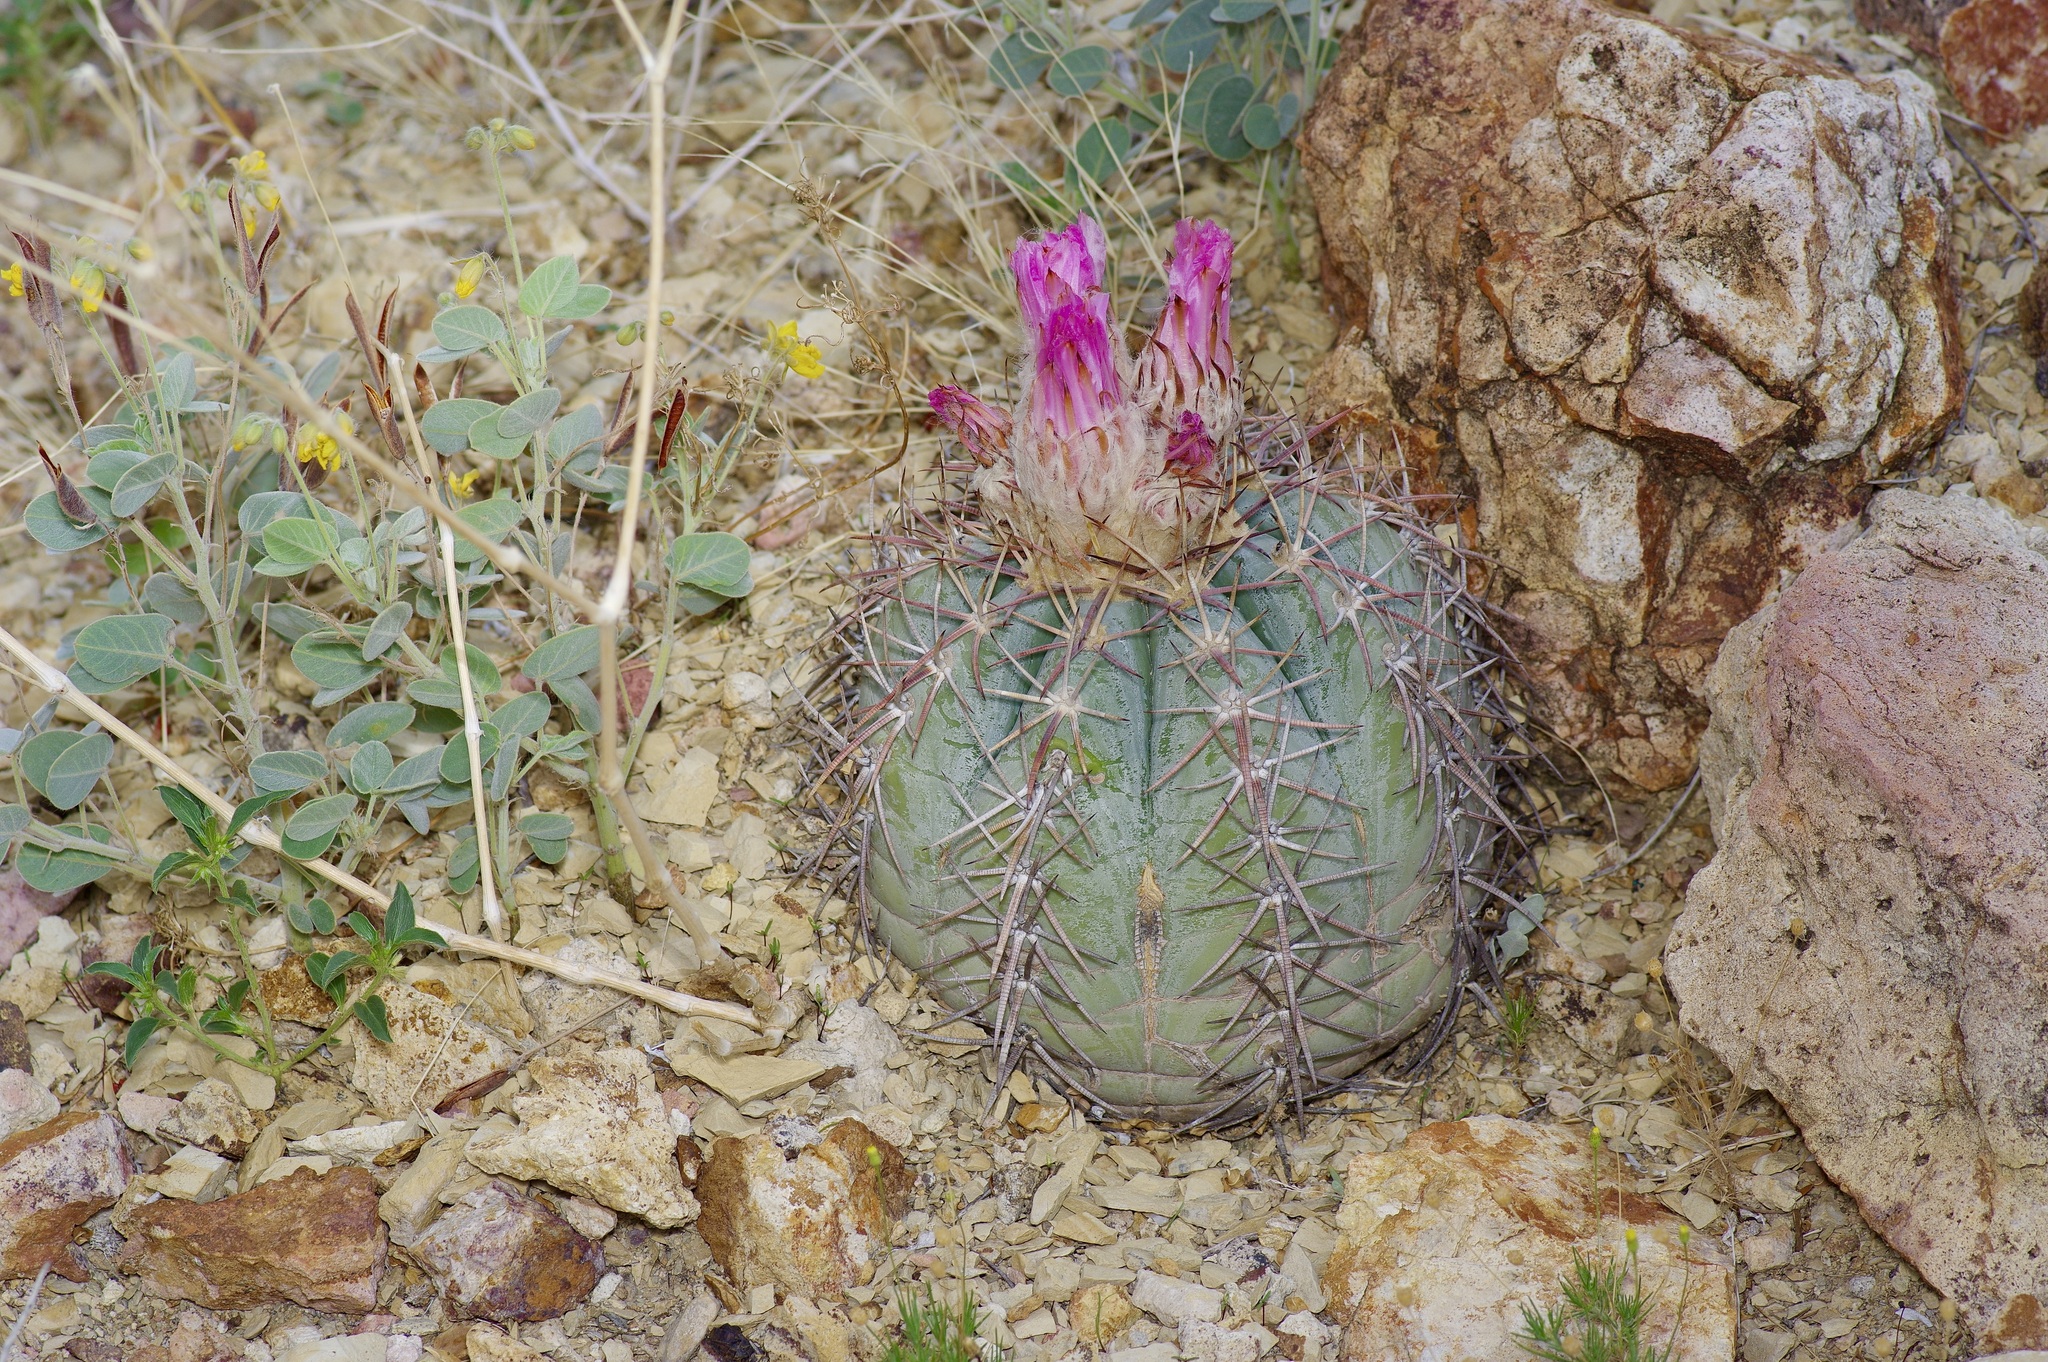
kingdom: Plantae
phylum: Tracheophyta
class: Magnoliopsida
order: Caryophyllales
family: Cactaceae
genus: Echinocactus
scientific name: Echinocactus horizonthalonius
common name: Devilshead
